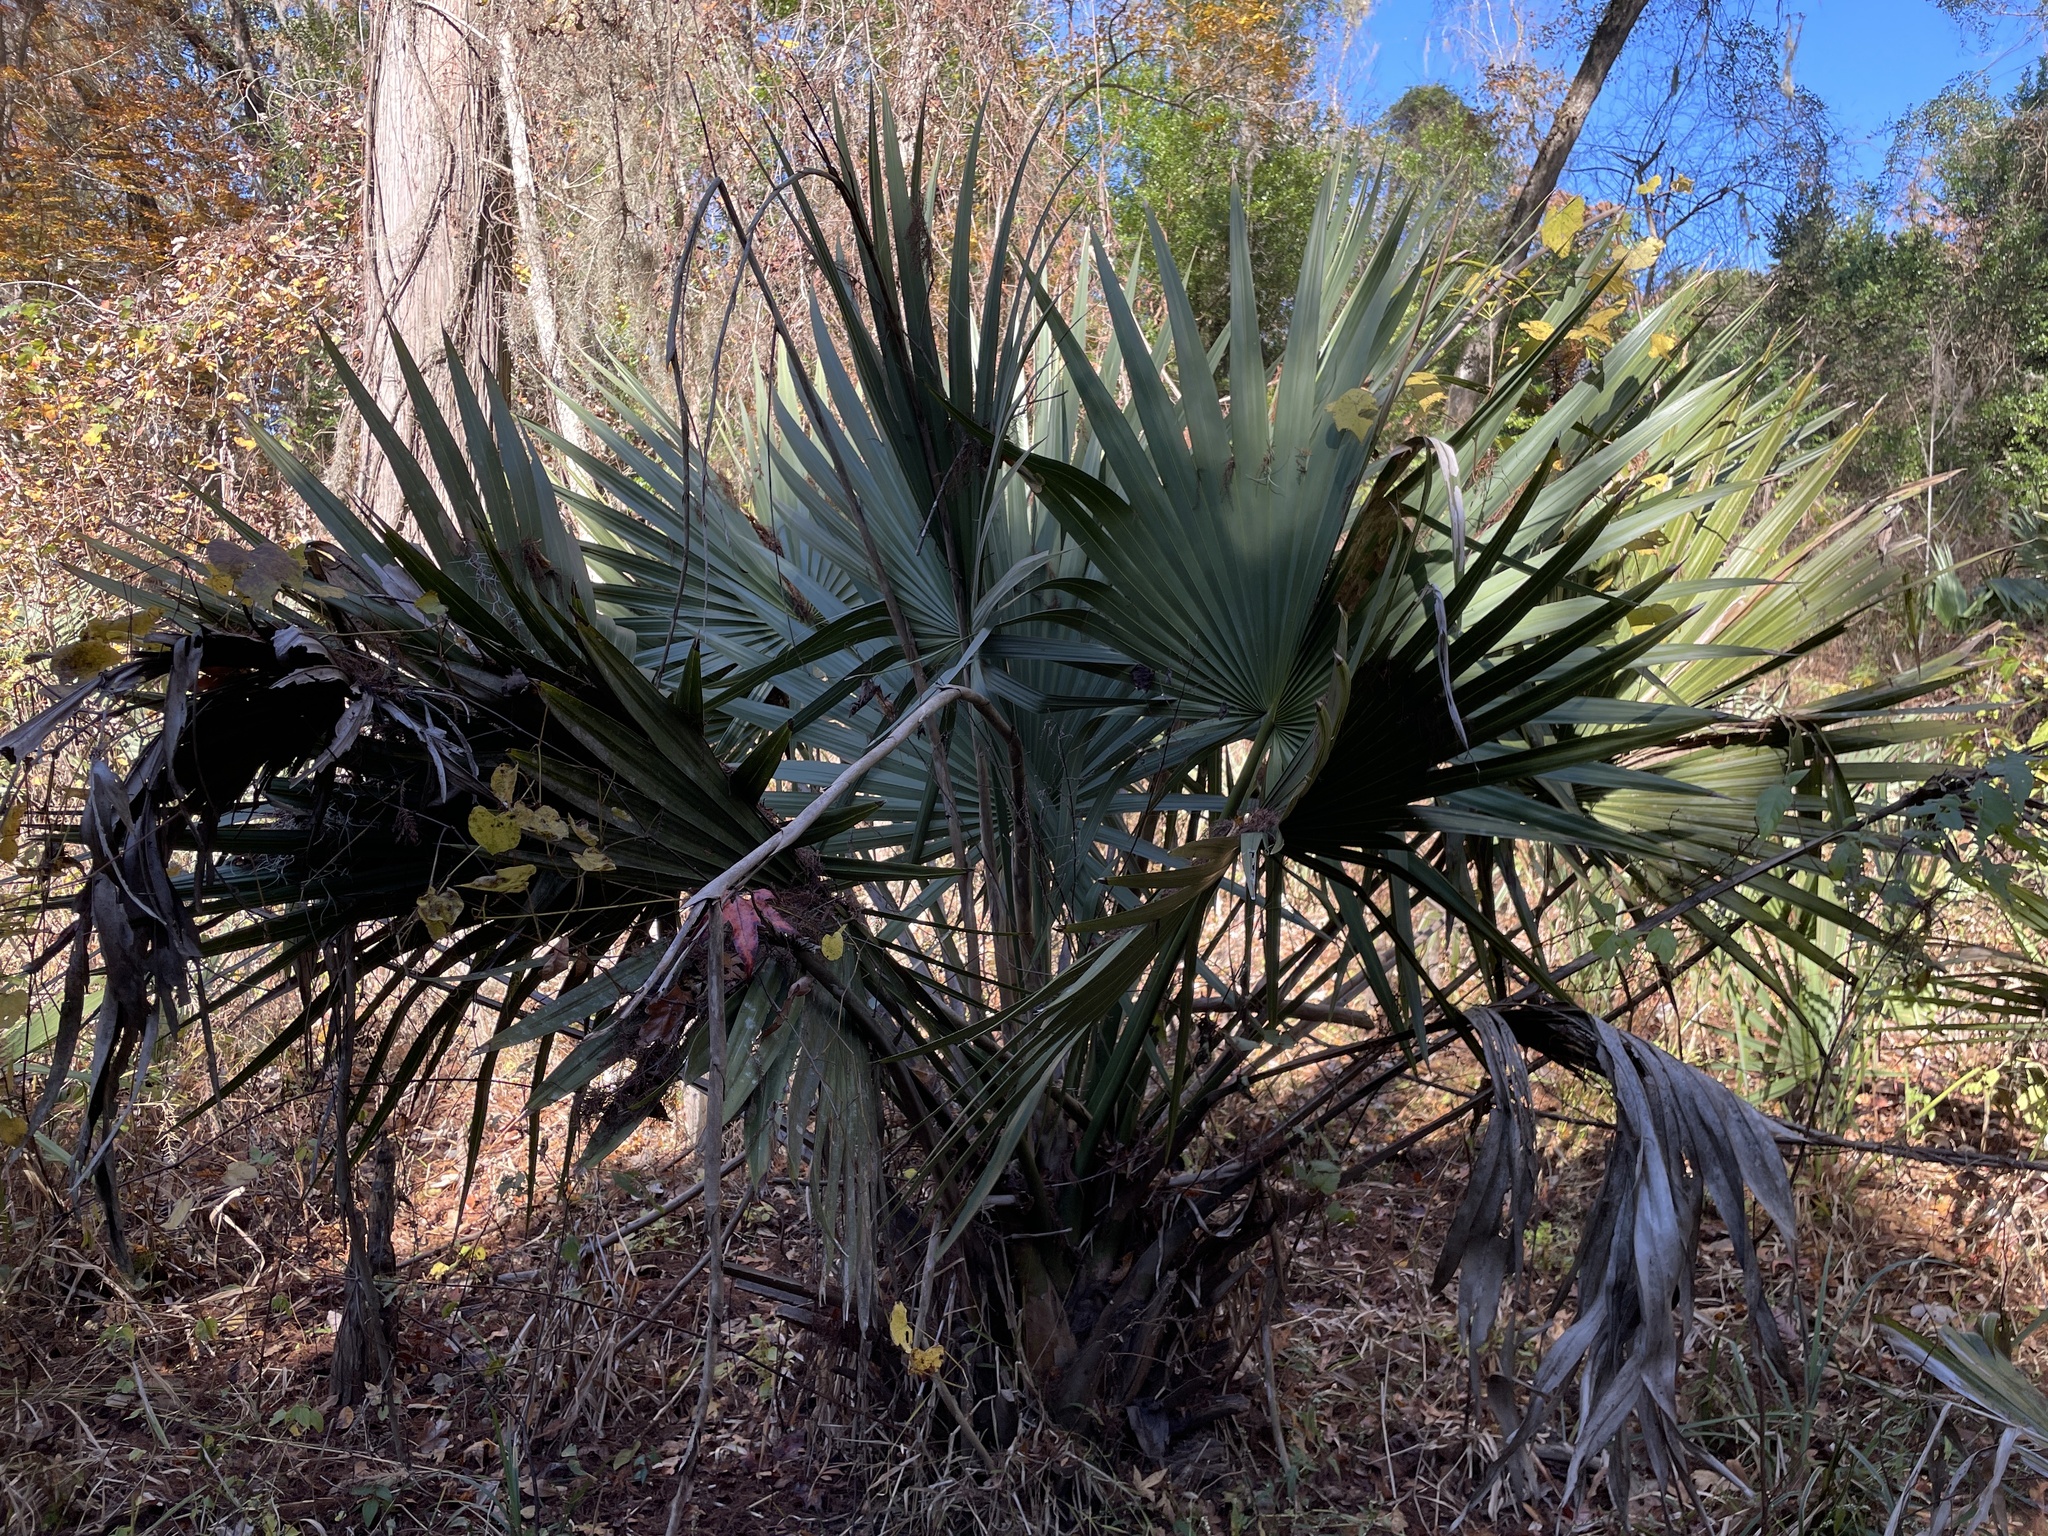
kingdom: Plantae
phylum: Tracheophyta
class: Liliopsida
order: Arecales
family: Arecaceae
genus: Sabal
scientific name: Sabal minor
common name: Dwarf palmetto
